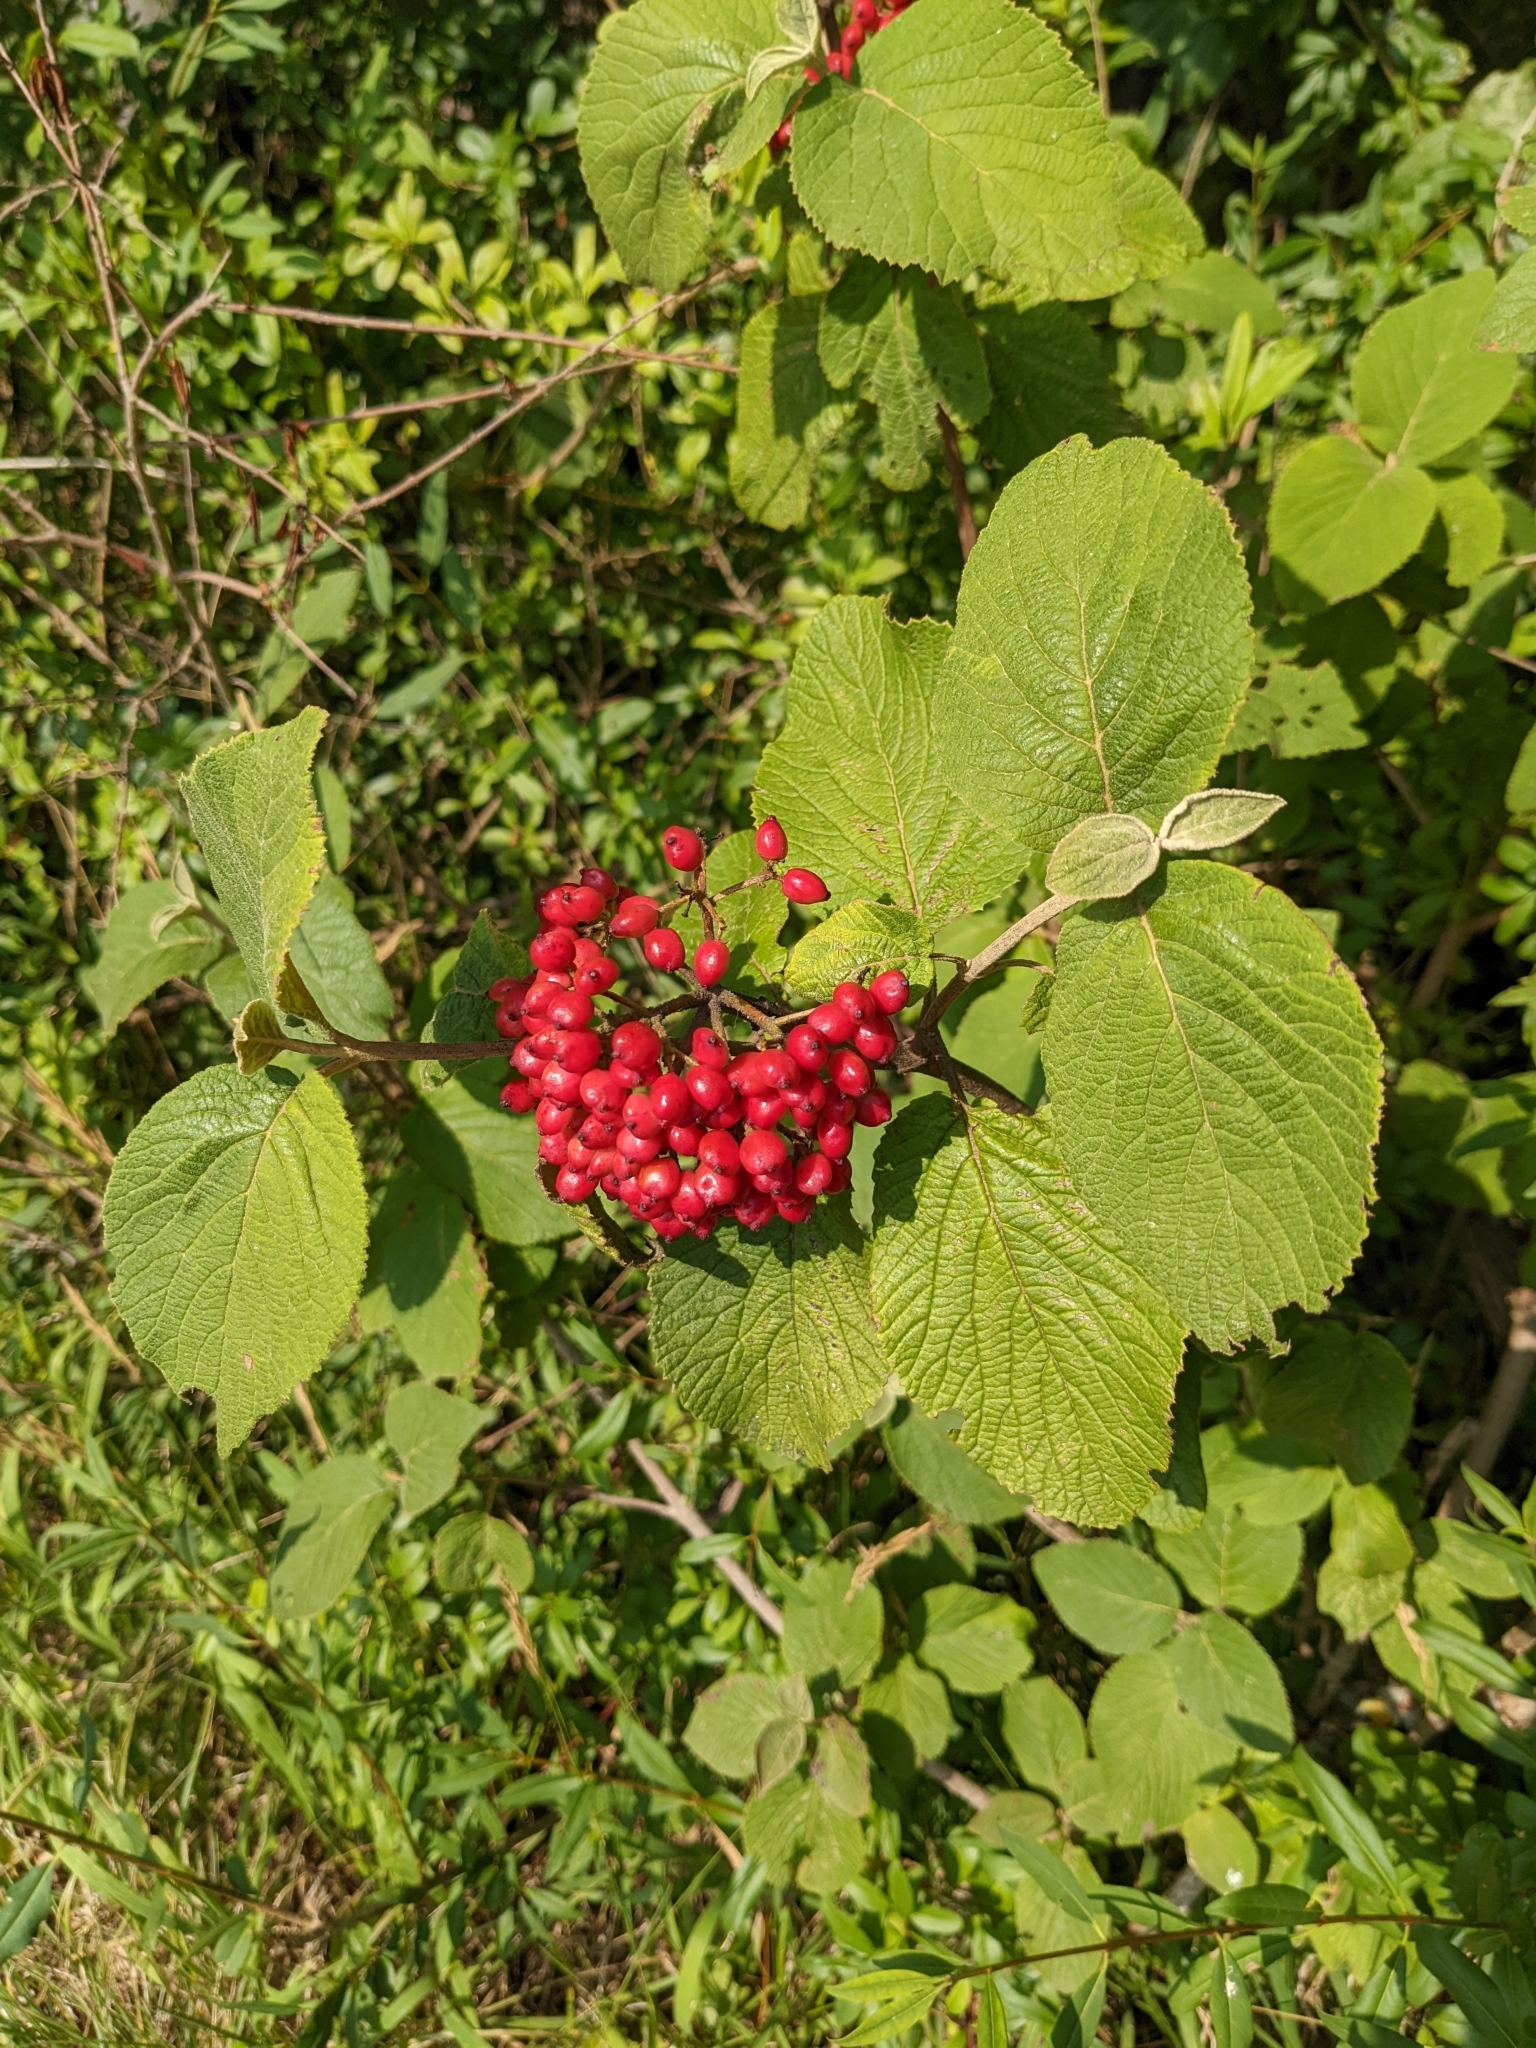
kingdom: Plantae
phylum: Tracheophyta
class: Magnoliopsida
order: Dipsacales
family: Viburnaceae
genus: Viburnum
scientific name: Viburnum lantana
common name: Wayfaring tree
